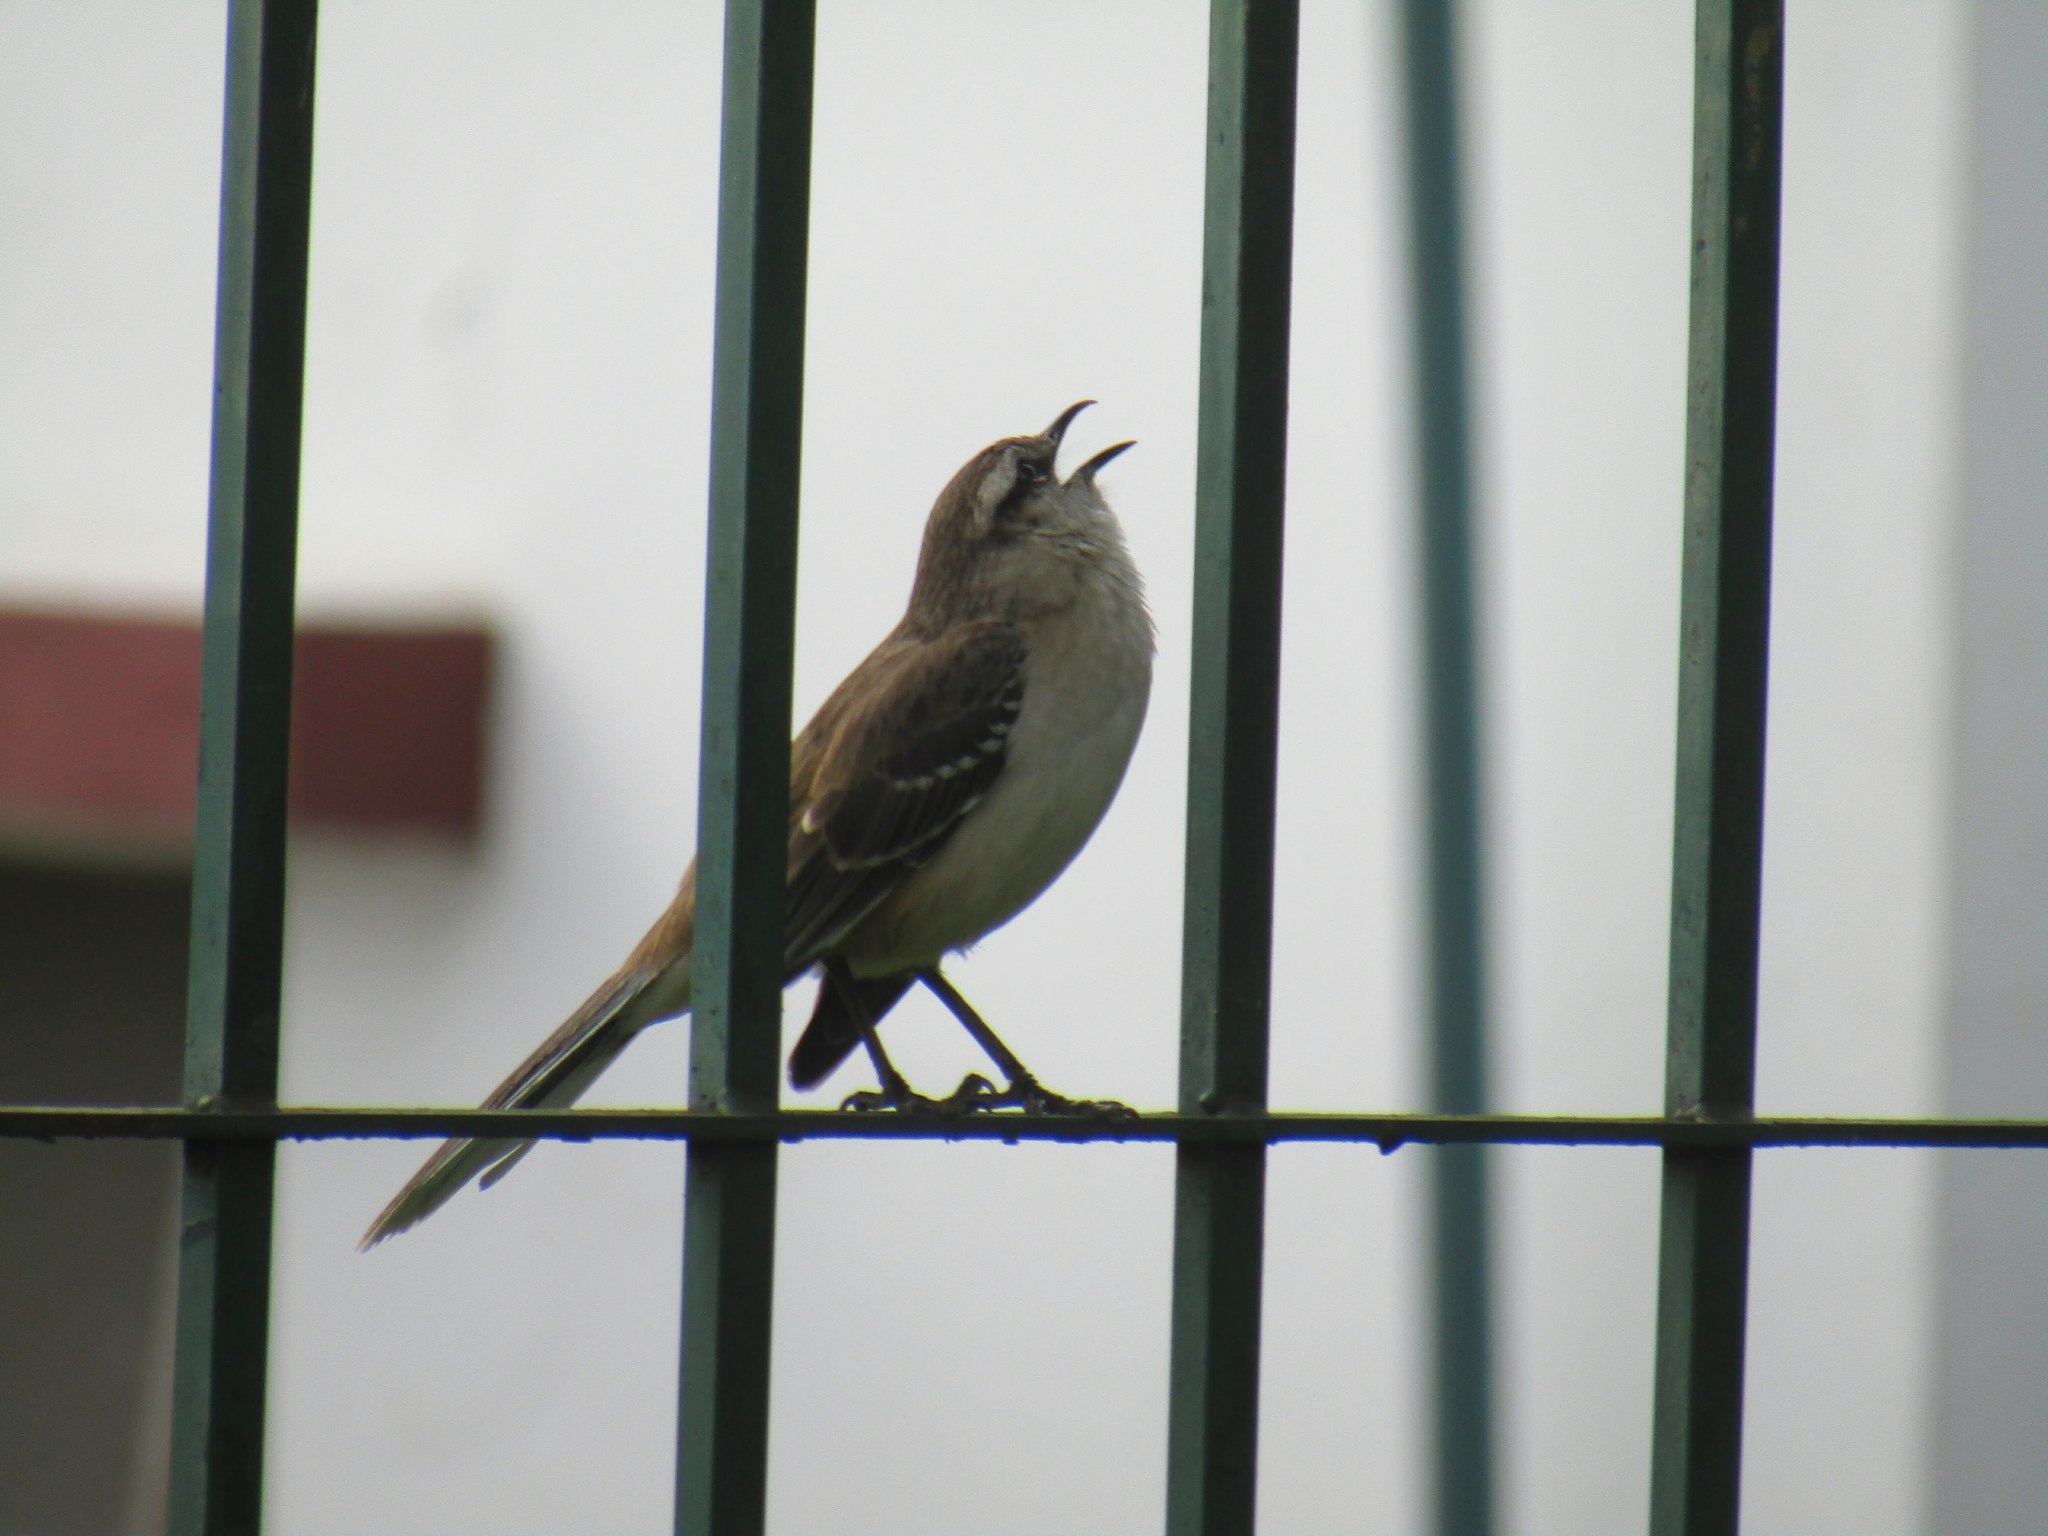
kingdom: Animalia
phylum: Chordata
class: Aves
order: Passeriformes
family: Mimidae
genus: Mimus
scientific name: Mimus saturninus
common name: Chalk-browed mockingbird
